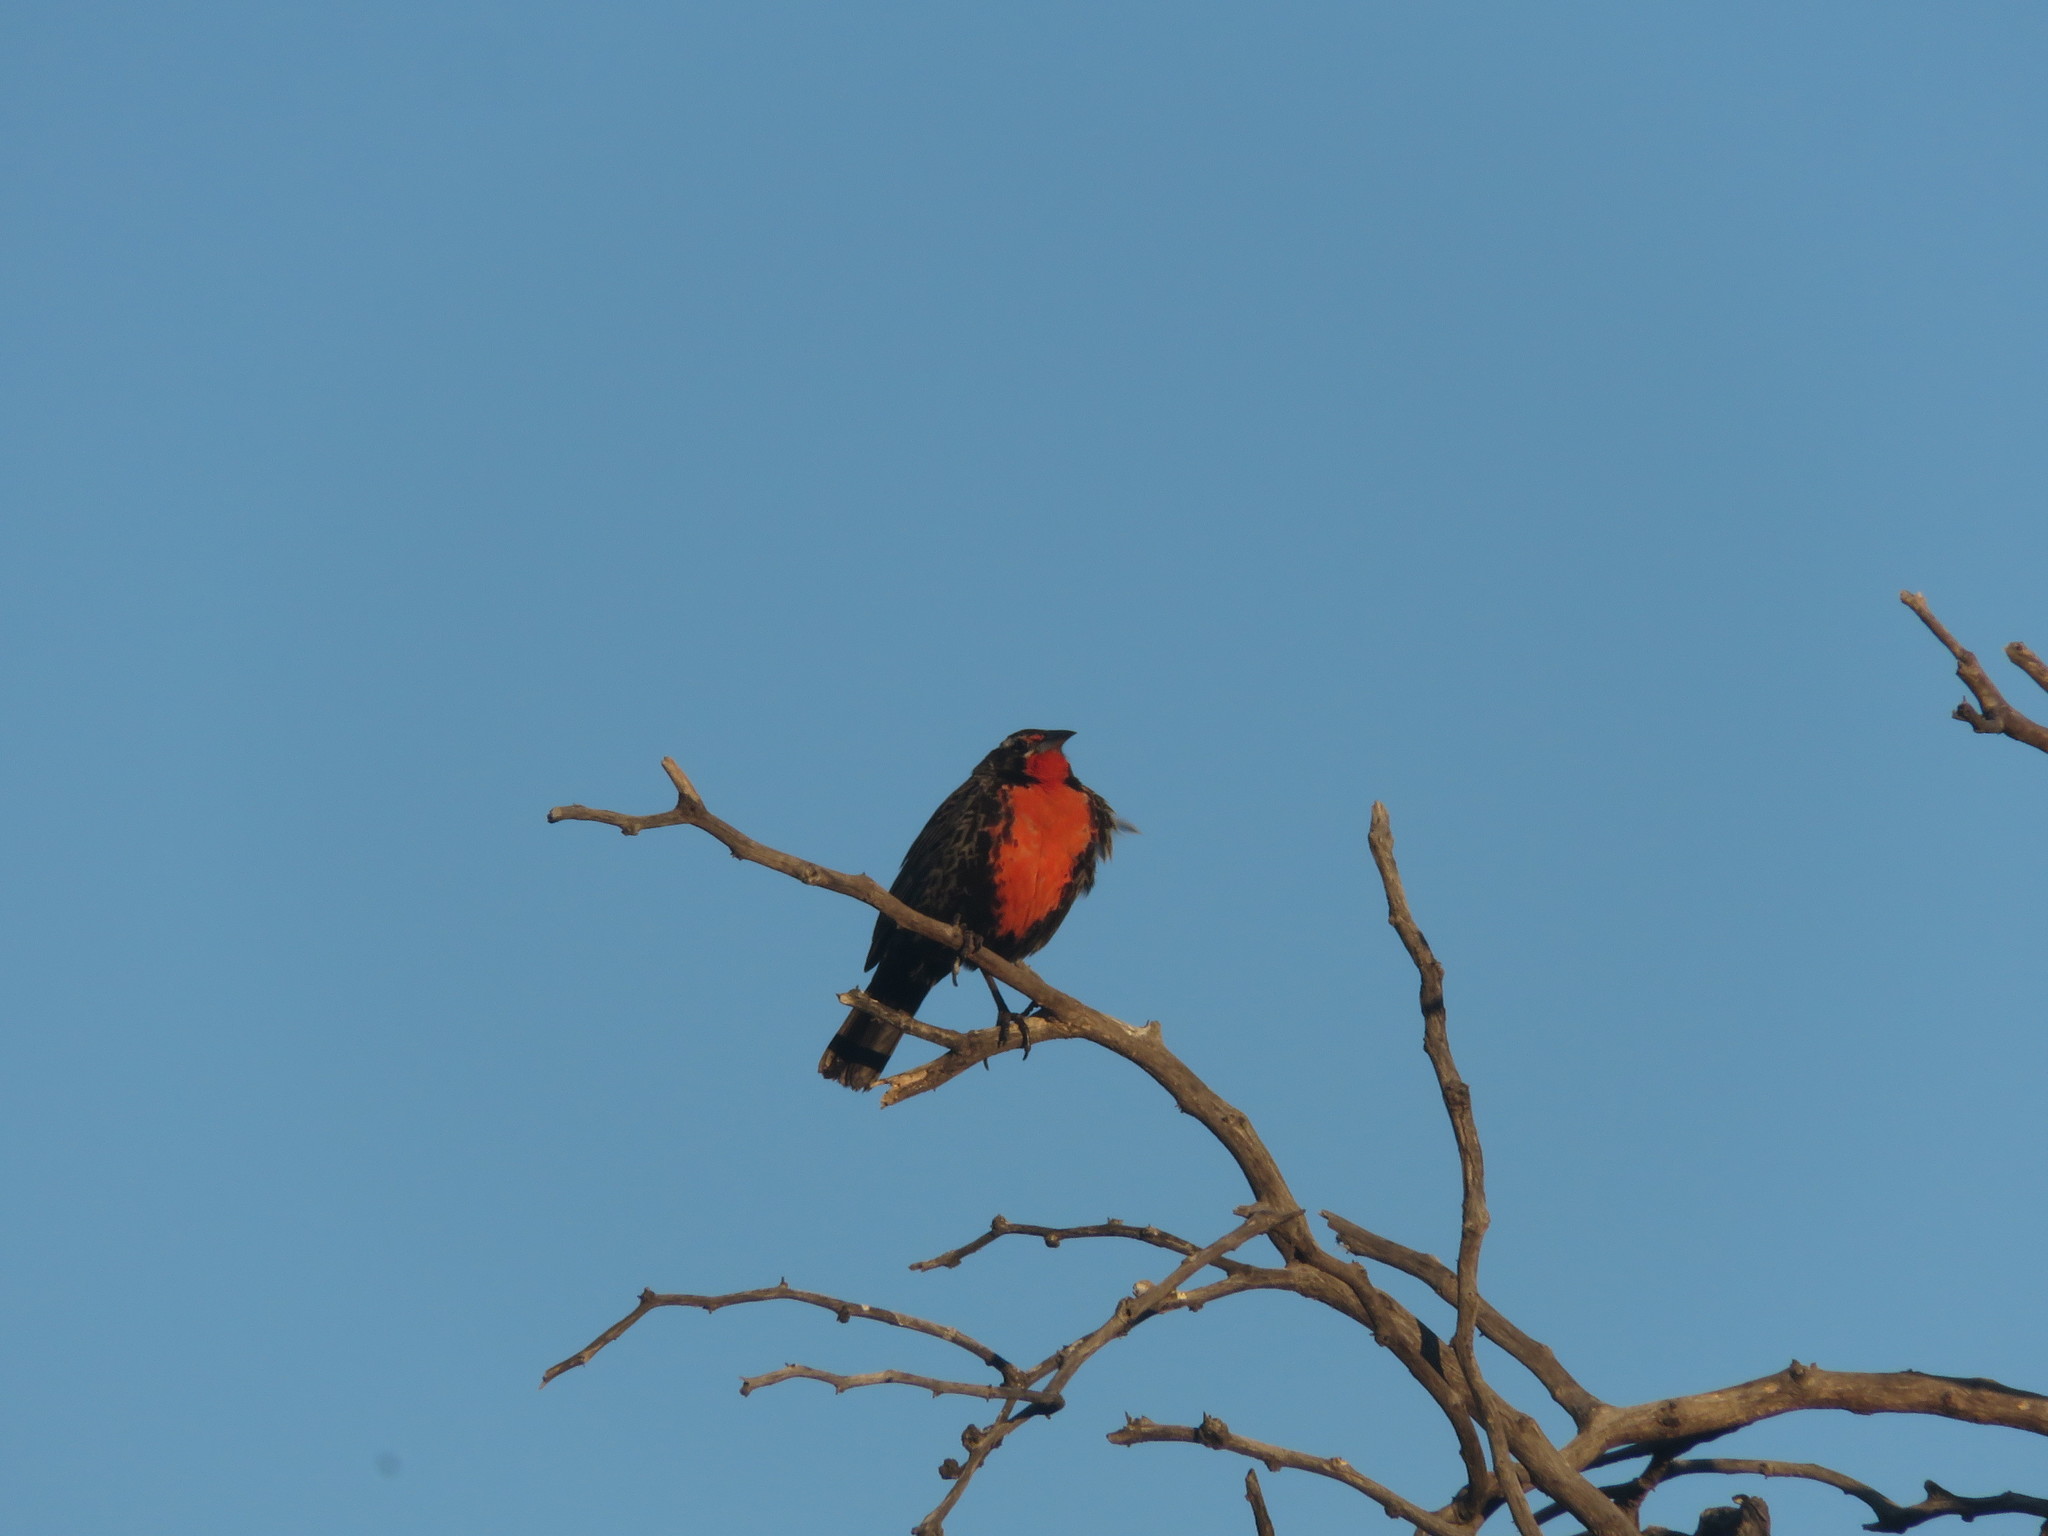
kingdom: Animalia
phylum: Chordata
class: Aves
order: Passeriformes
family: Icteridae
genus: Sturnella
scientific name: Sturnella loyca
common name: Long-tailed meadowlark
